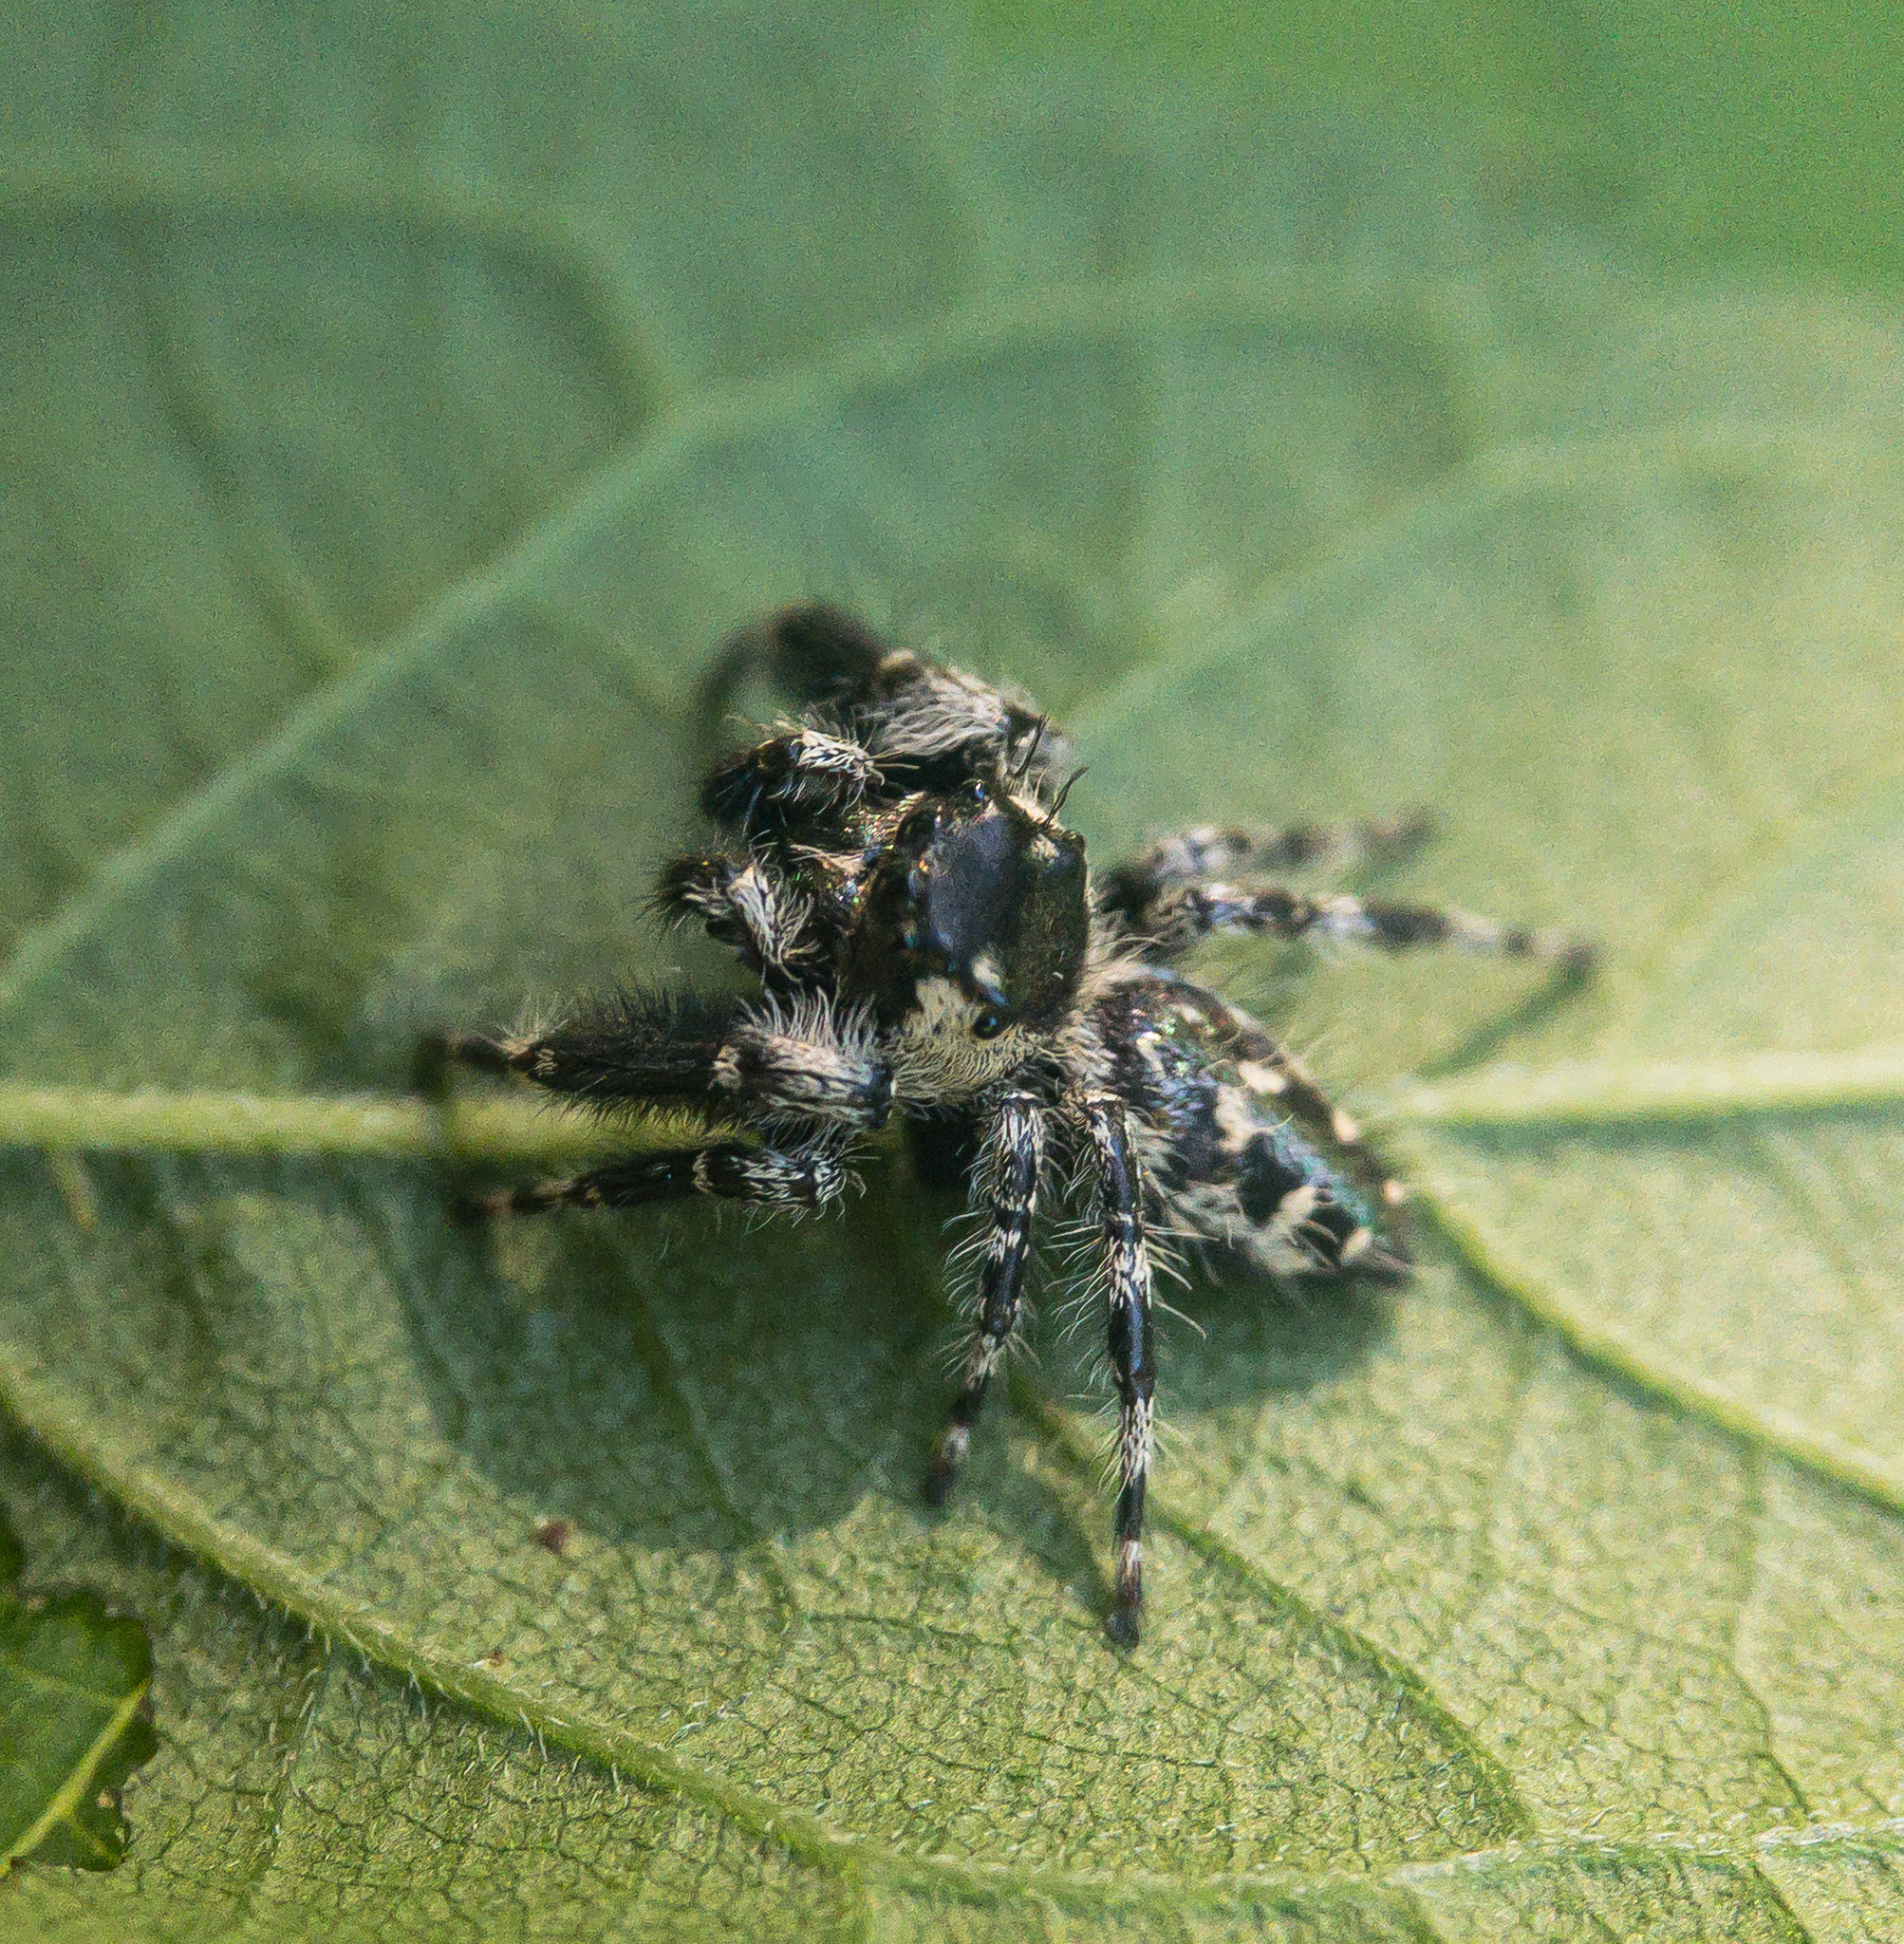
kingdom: Animalia
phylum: Arthropoda
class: Arachnida
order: Araneae
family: Salticidae
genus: Phidippus
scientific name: Phidippus otiosus
